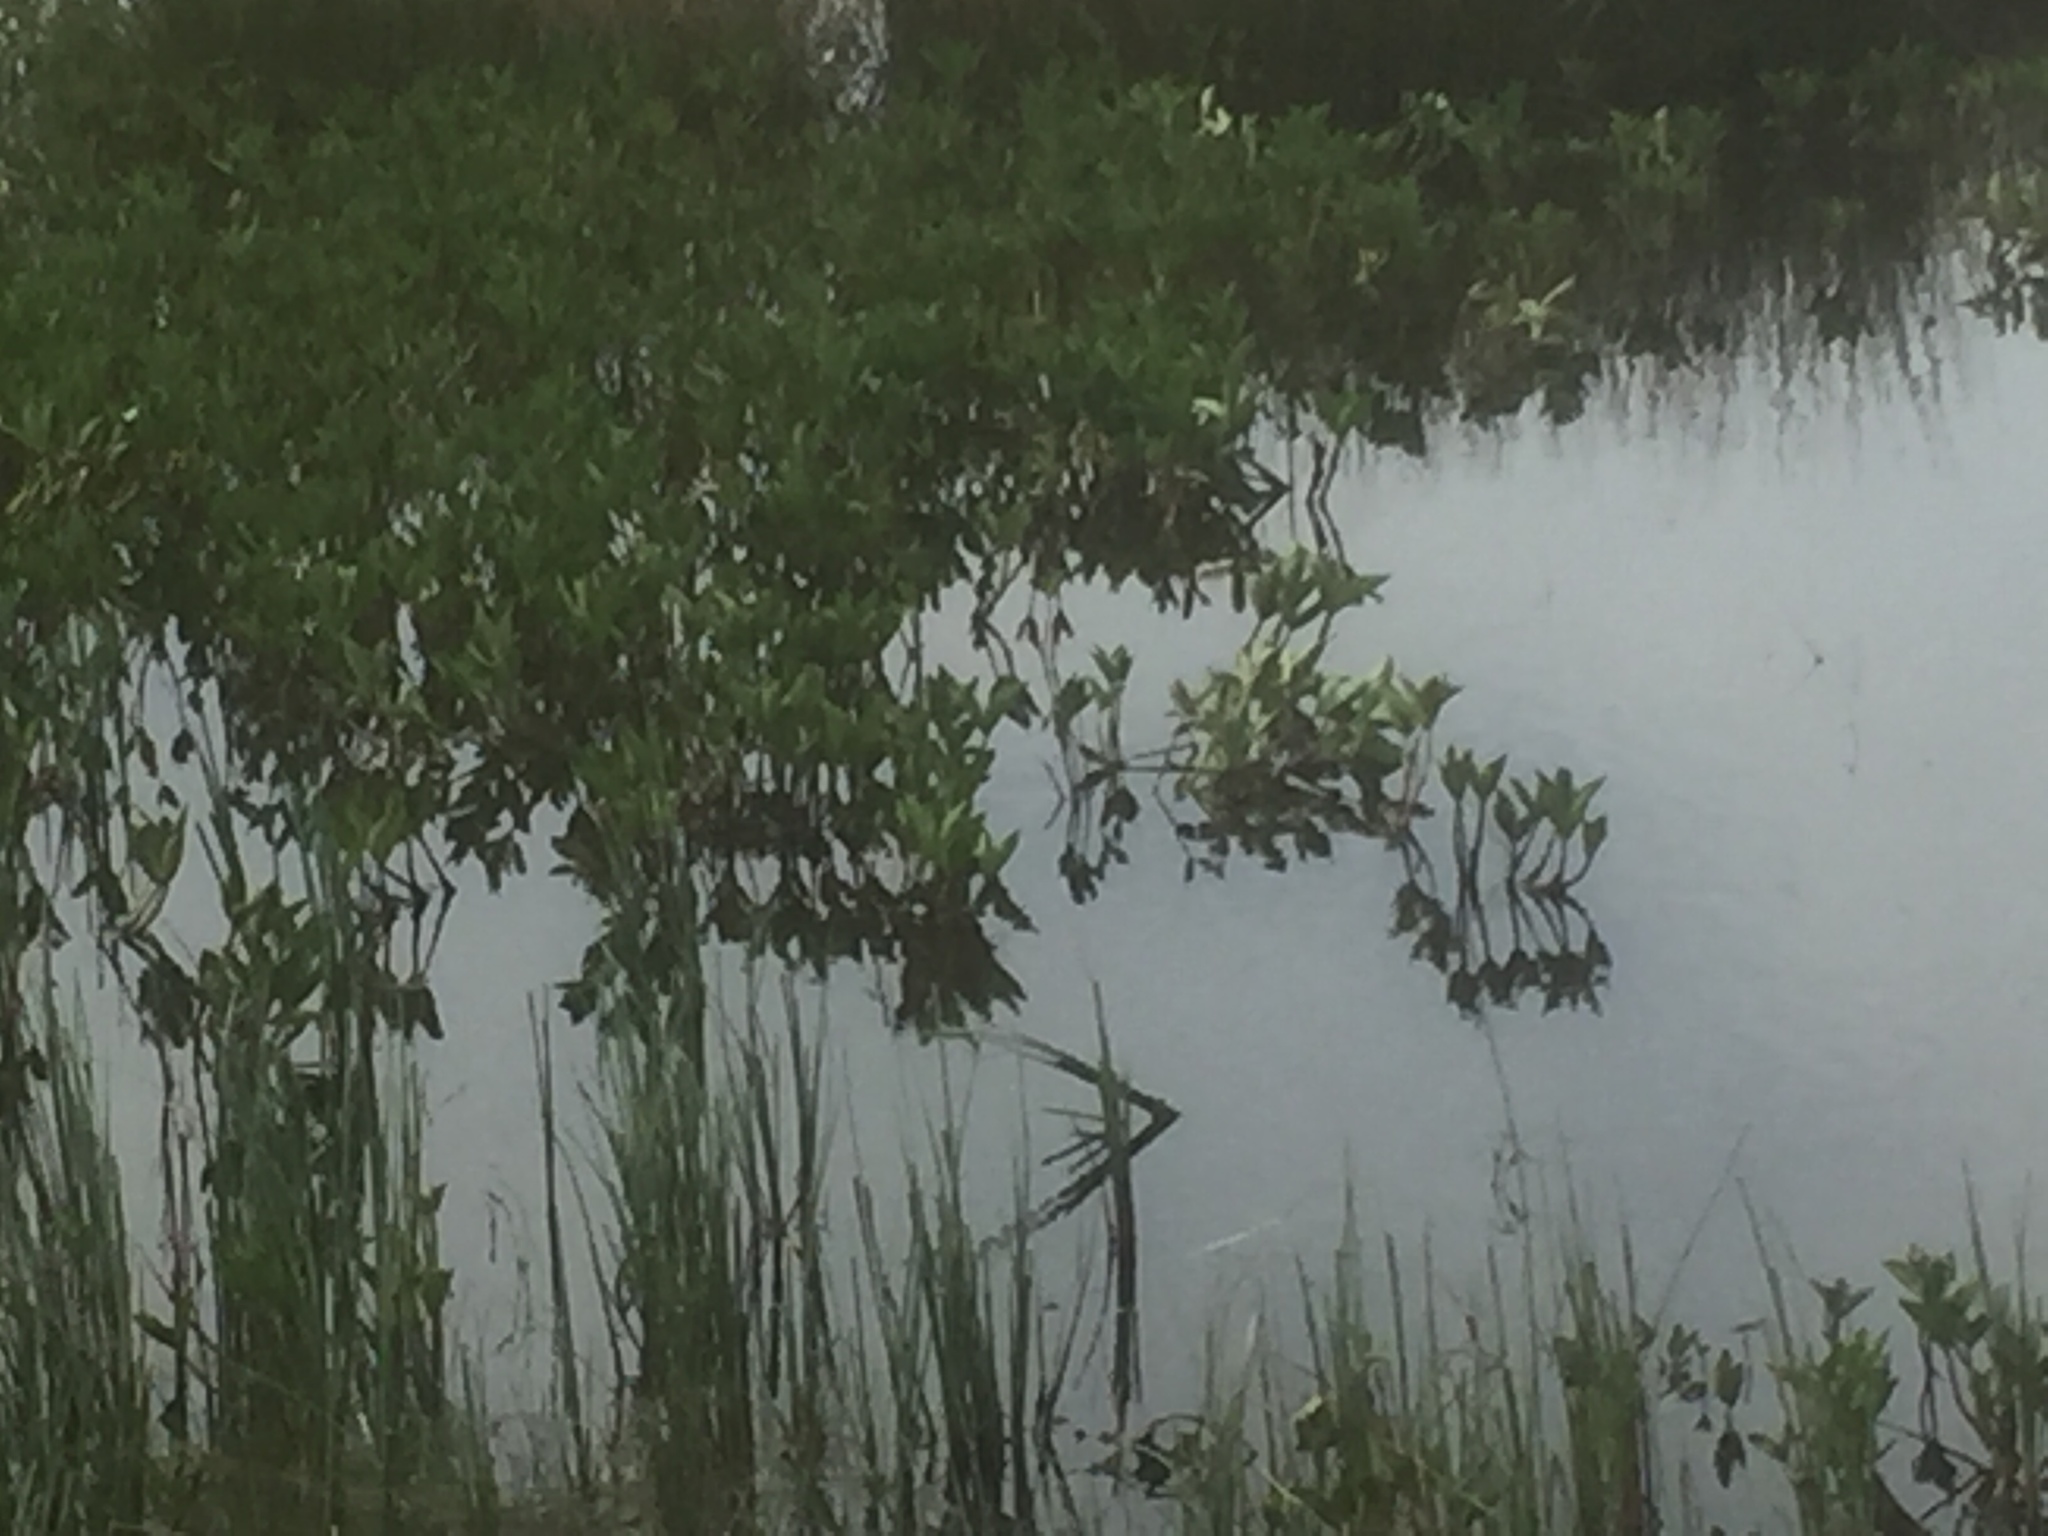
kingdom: Plantae
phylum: Tracheophyta
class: Magnoliopsida
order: Asterales
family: Menyanthaceae
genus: Menyanthes
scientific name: Menyanthes trifoliata
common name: Bogbean
